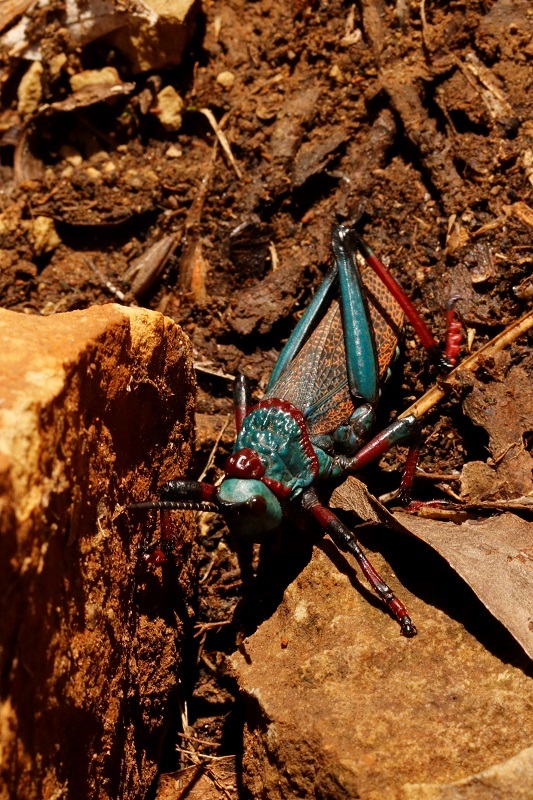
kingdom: Animalia
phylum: Arthropoda
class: Insecta
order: Orthoptera
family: Pyrgomorphidae
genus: Dictyophorus
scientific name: Dictyophorus spumans
